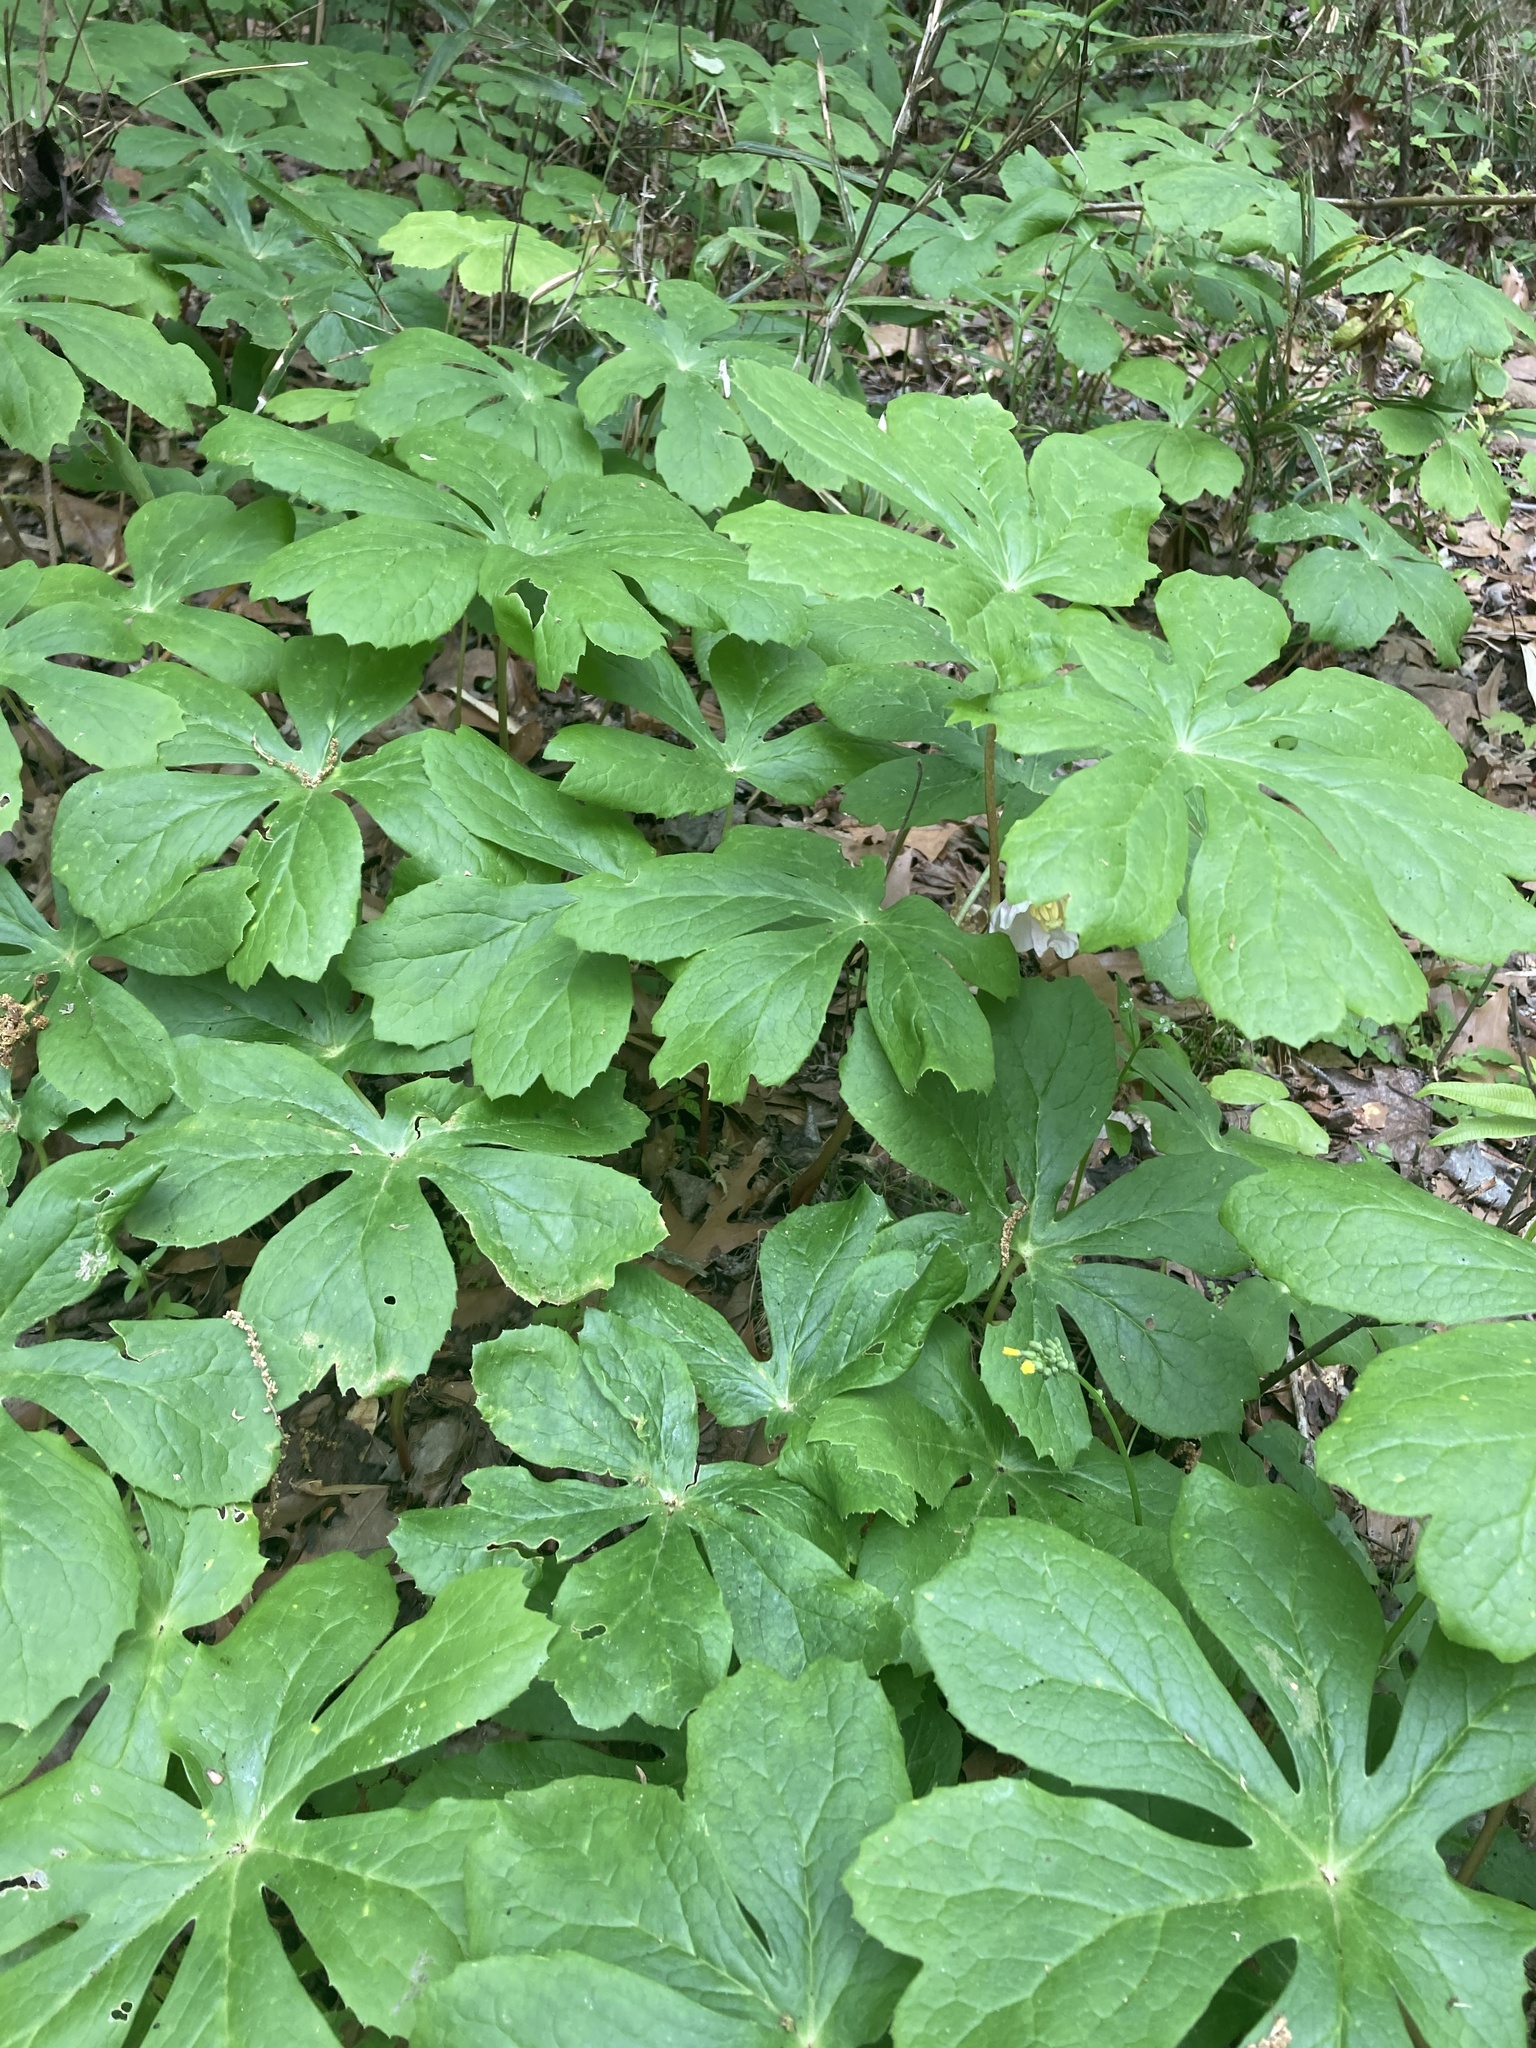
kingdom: Plantae
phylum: Tracheophyta
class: Magnoliopsida
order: Ranunculales
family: Berberidaceae
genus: Podophyllum
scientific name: Podophyllum peltatum
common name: Wild mandrake
